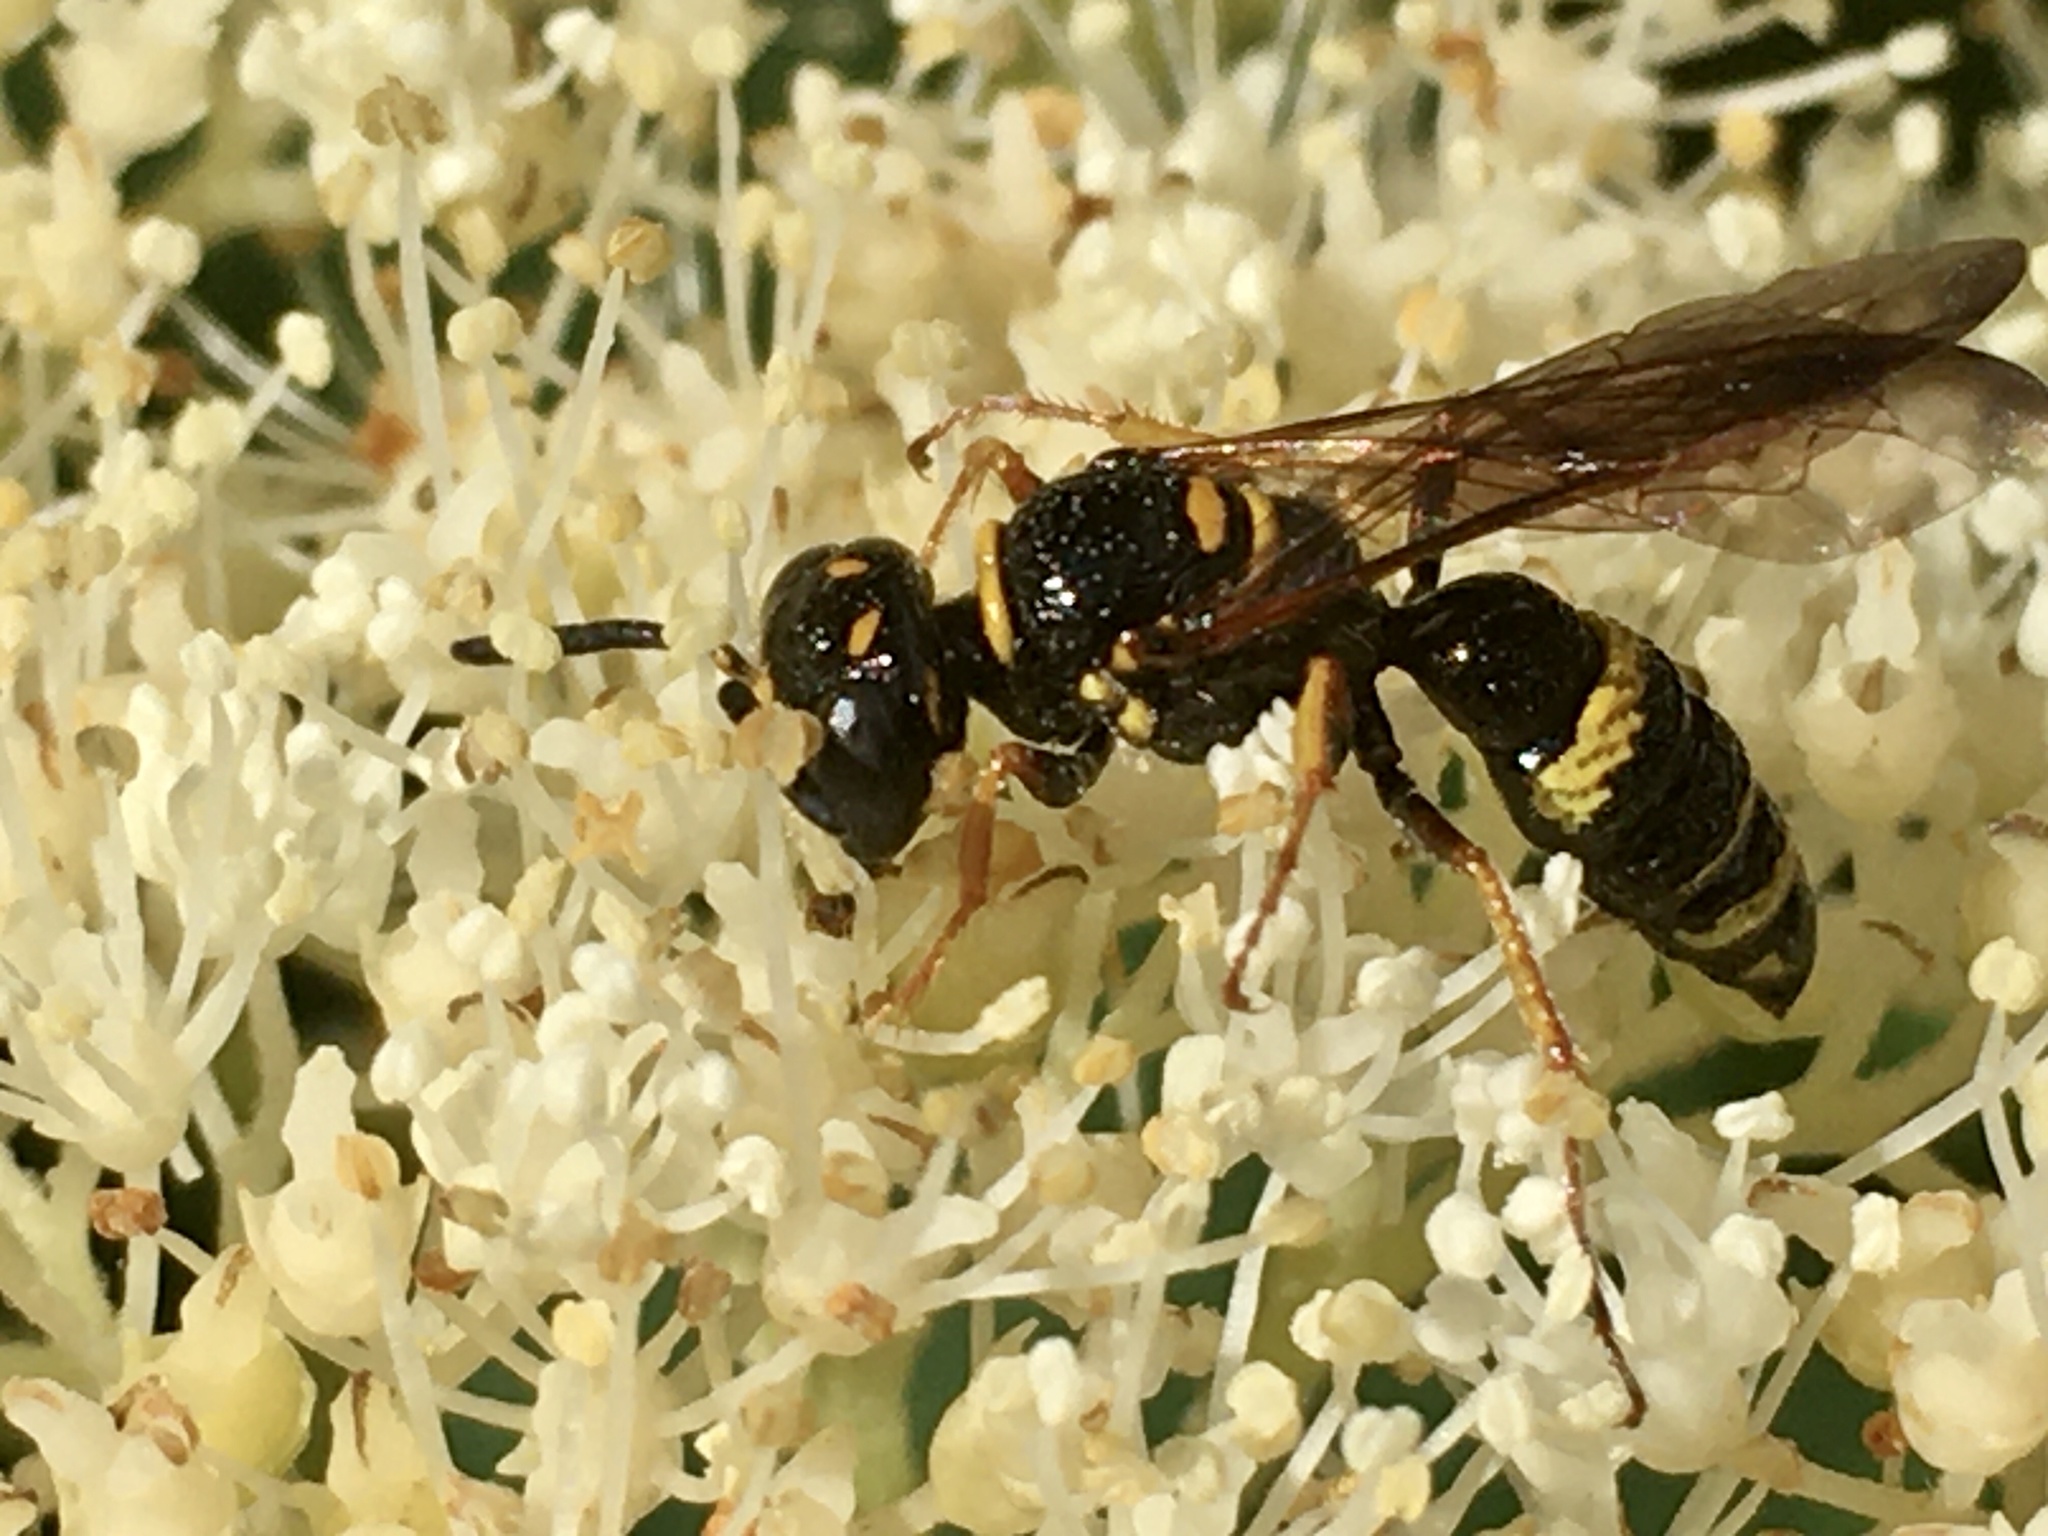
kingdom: Animalia
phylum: Arthropoda
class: Insecta
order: Hymenoptera
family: Crabronidae
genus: Philanthus
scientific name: Philanthus gibbosus
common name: Humped beewolf
